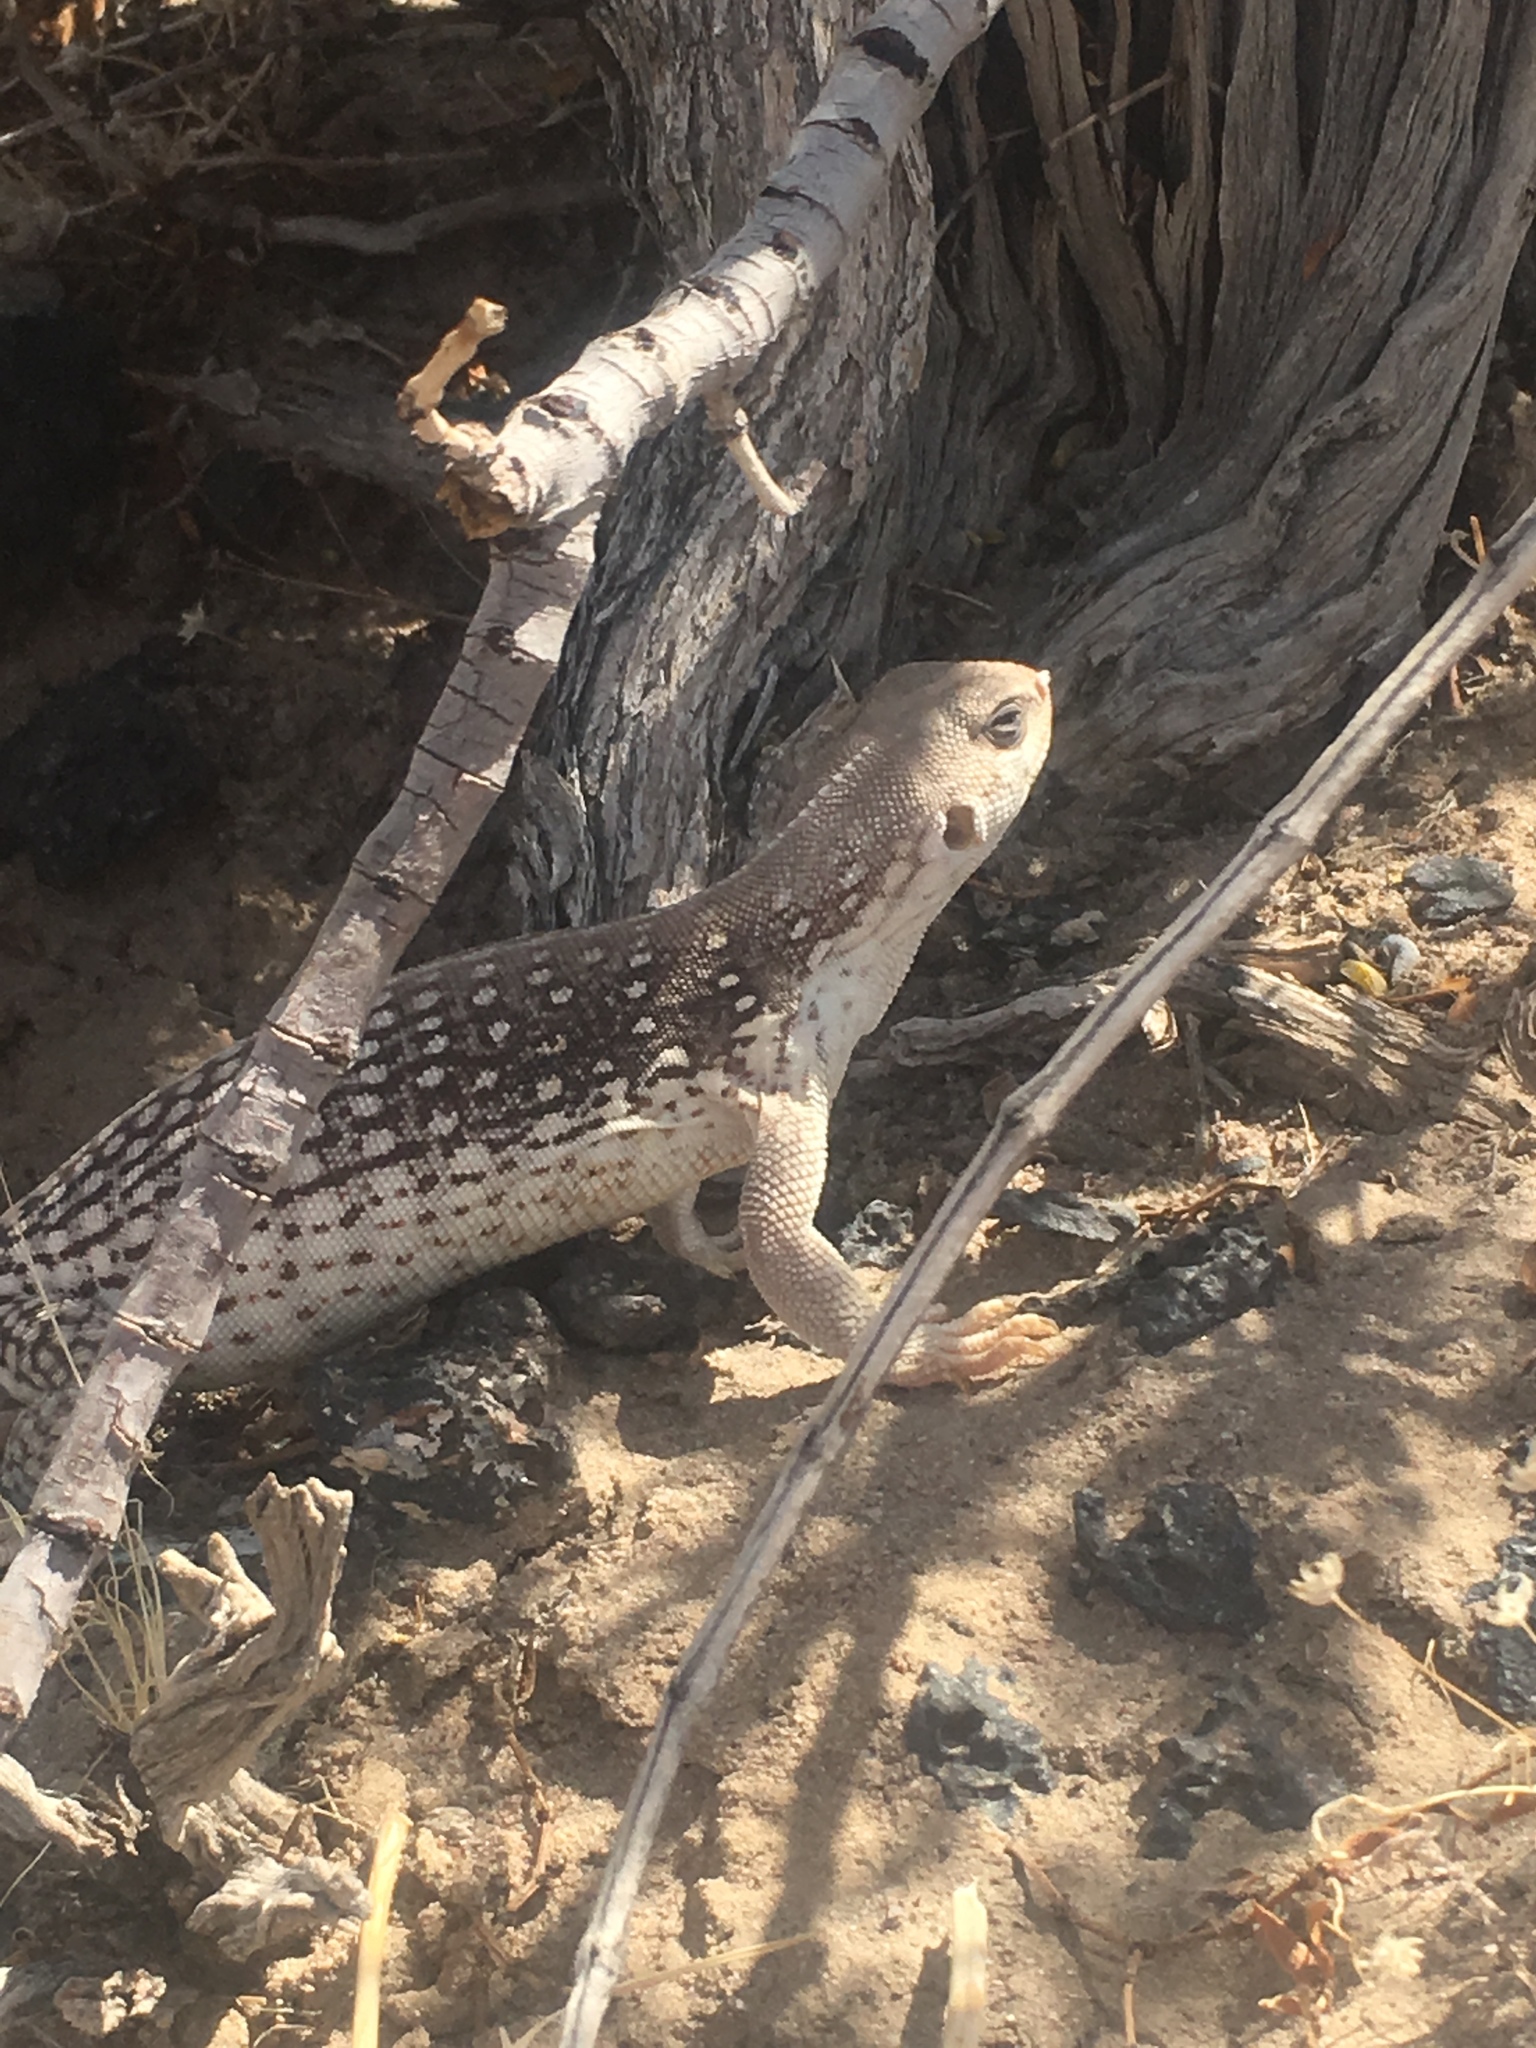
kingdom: Animalia
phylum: Chordata
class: Squamata
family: Iguanidae
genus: Dipsosaurus
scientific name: Dipsosaurus dorsalis
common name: Desert iguana
